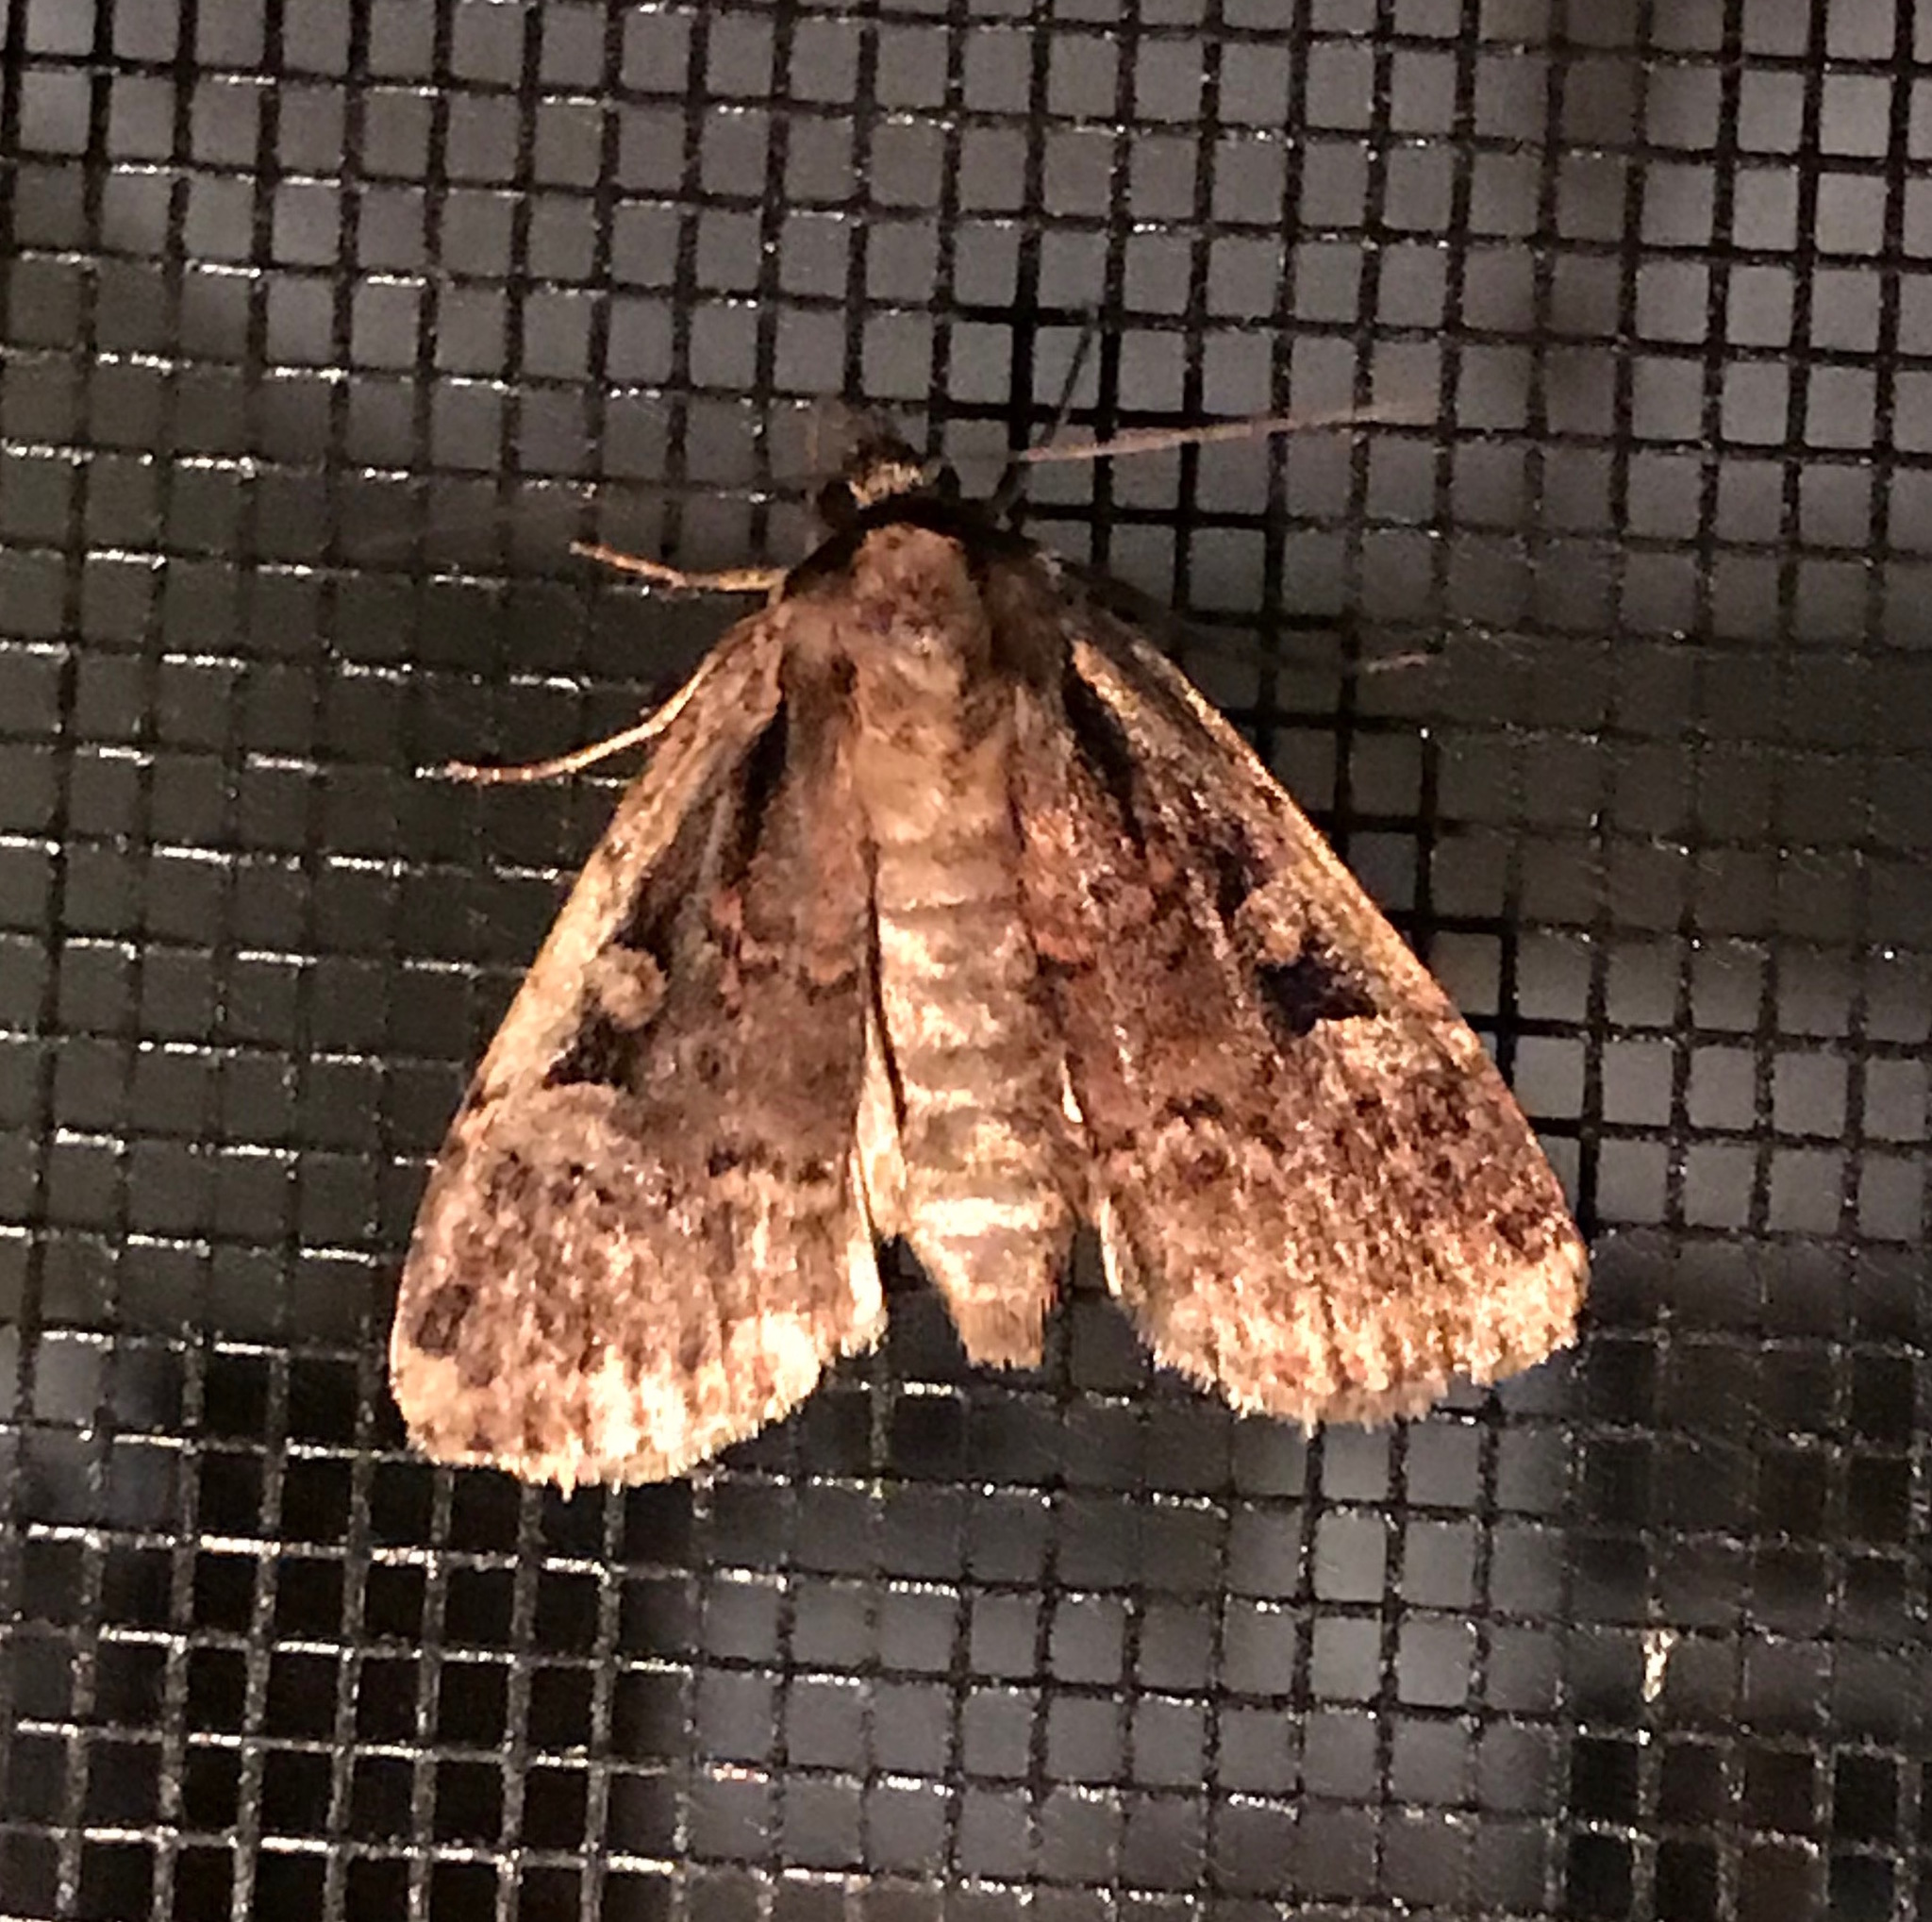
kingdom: Animalia
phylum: Arthropoda
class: Insecta
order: Lepidoptera
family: Noctuidae
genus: Eueretagrotis
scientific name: Eueretagrotis perattentus
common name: Two-spot dart moth
